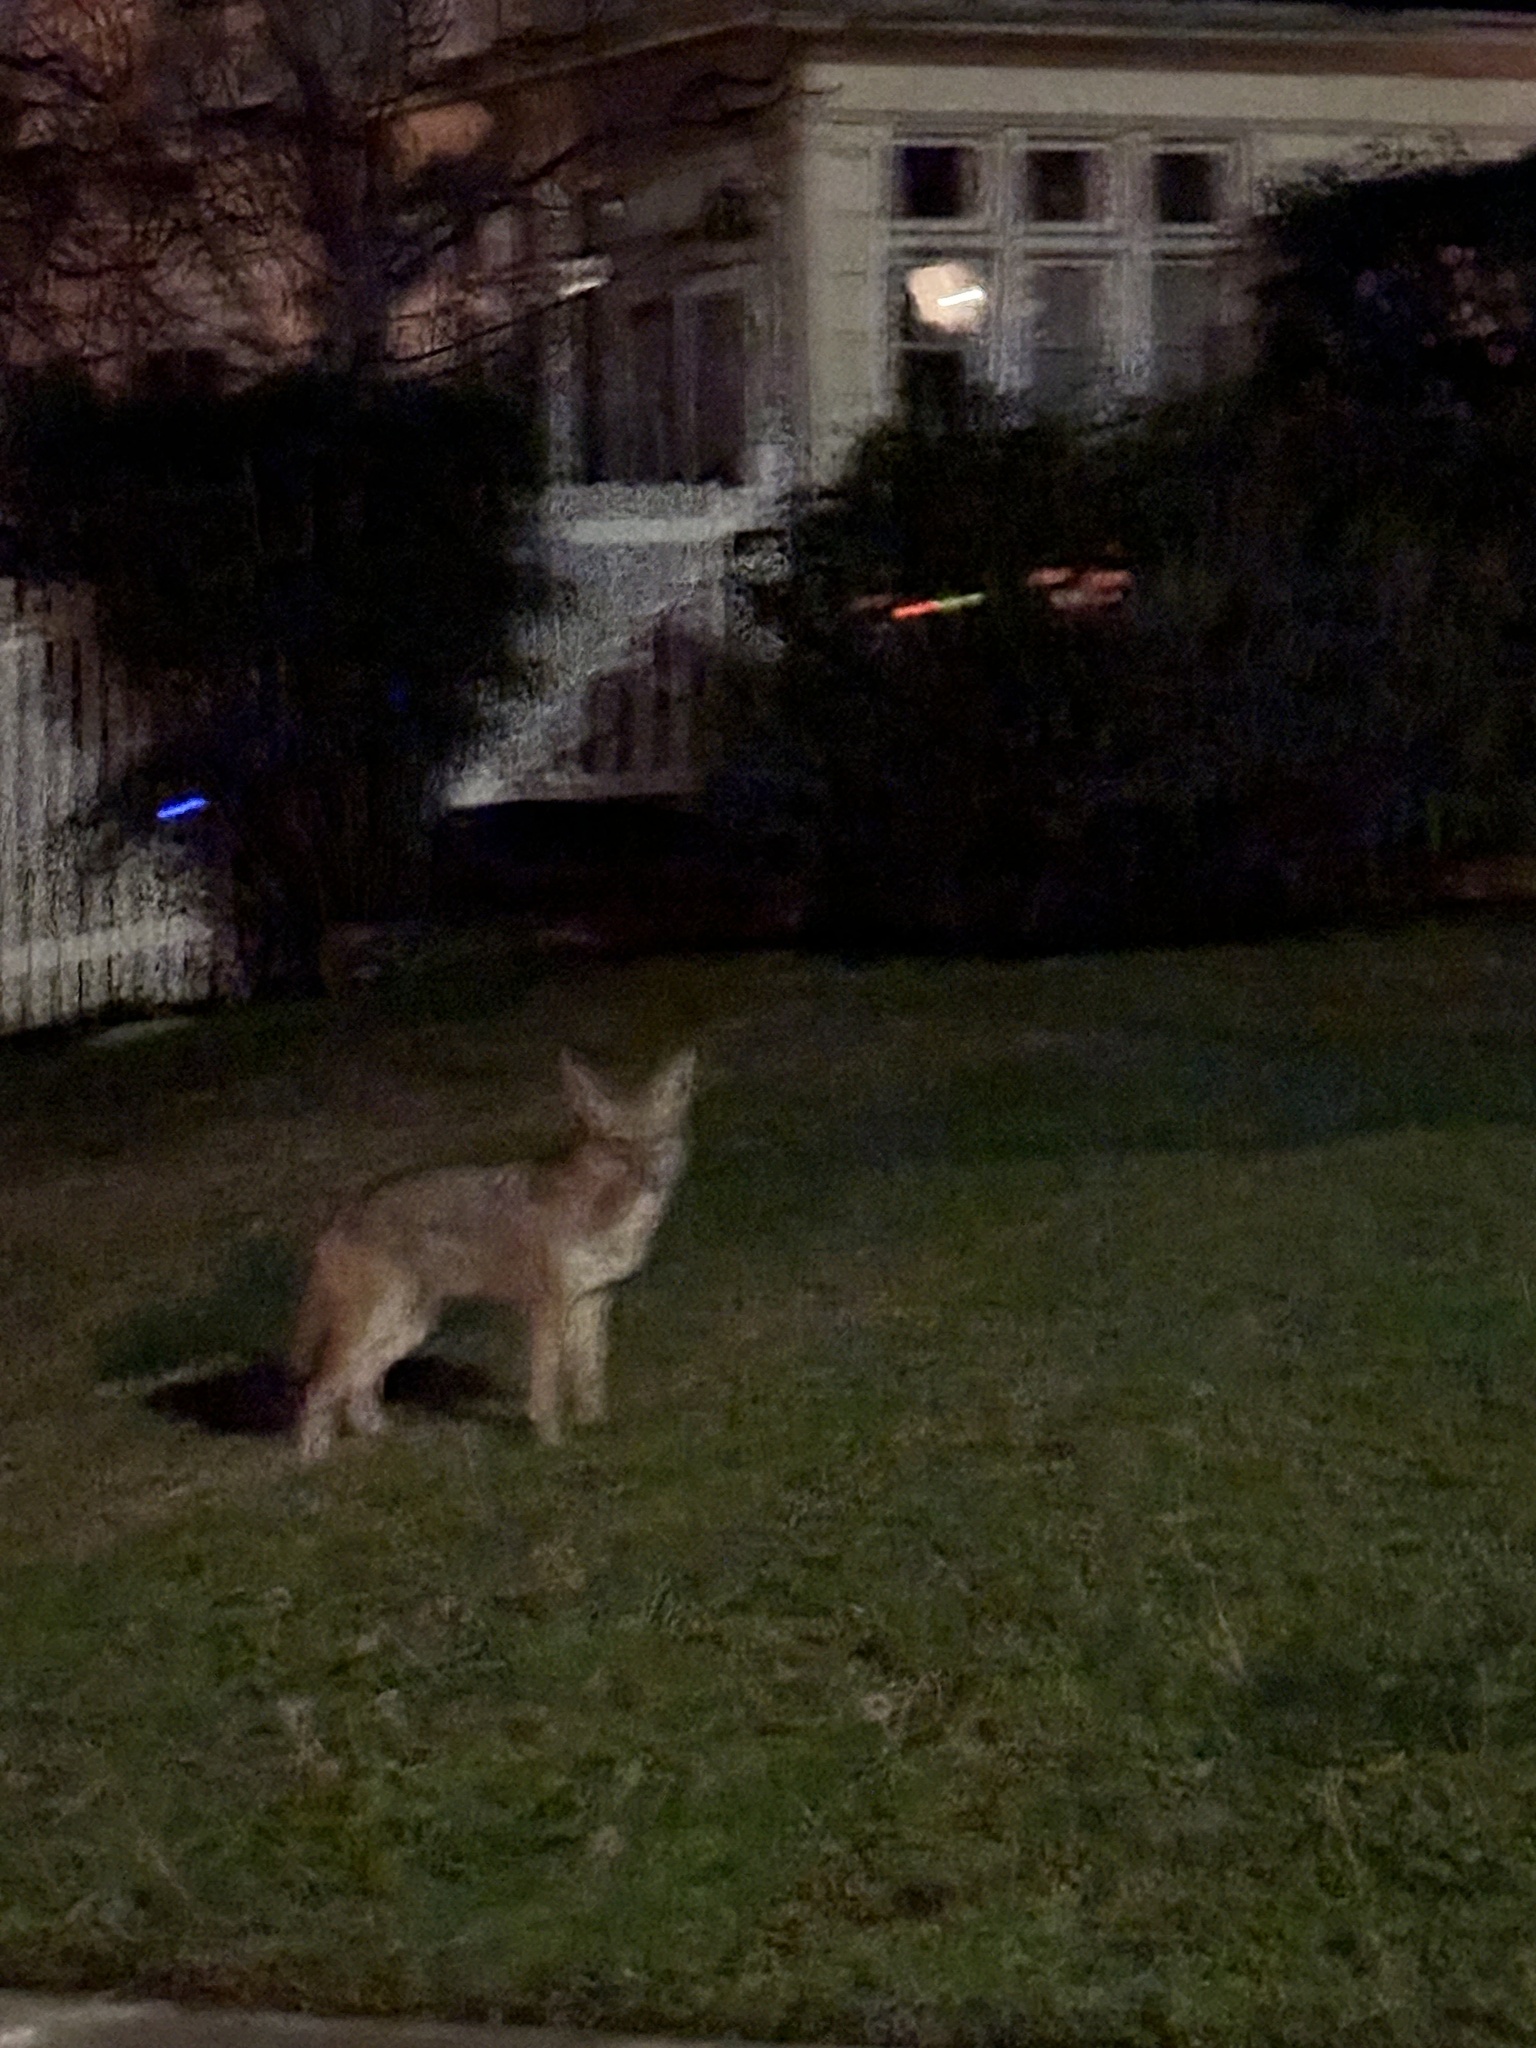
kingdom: Animalia
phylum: Chordata
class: Mammalia
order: Carnivora
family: Canidae
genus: Canis
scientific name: Canis latrans
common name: Coyote
